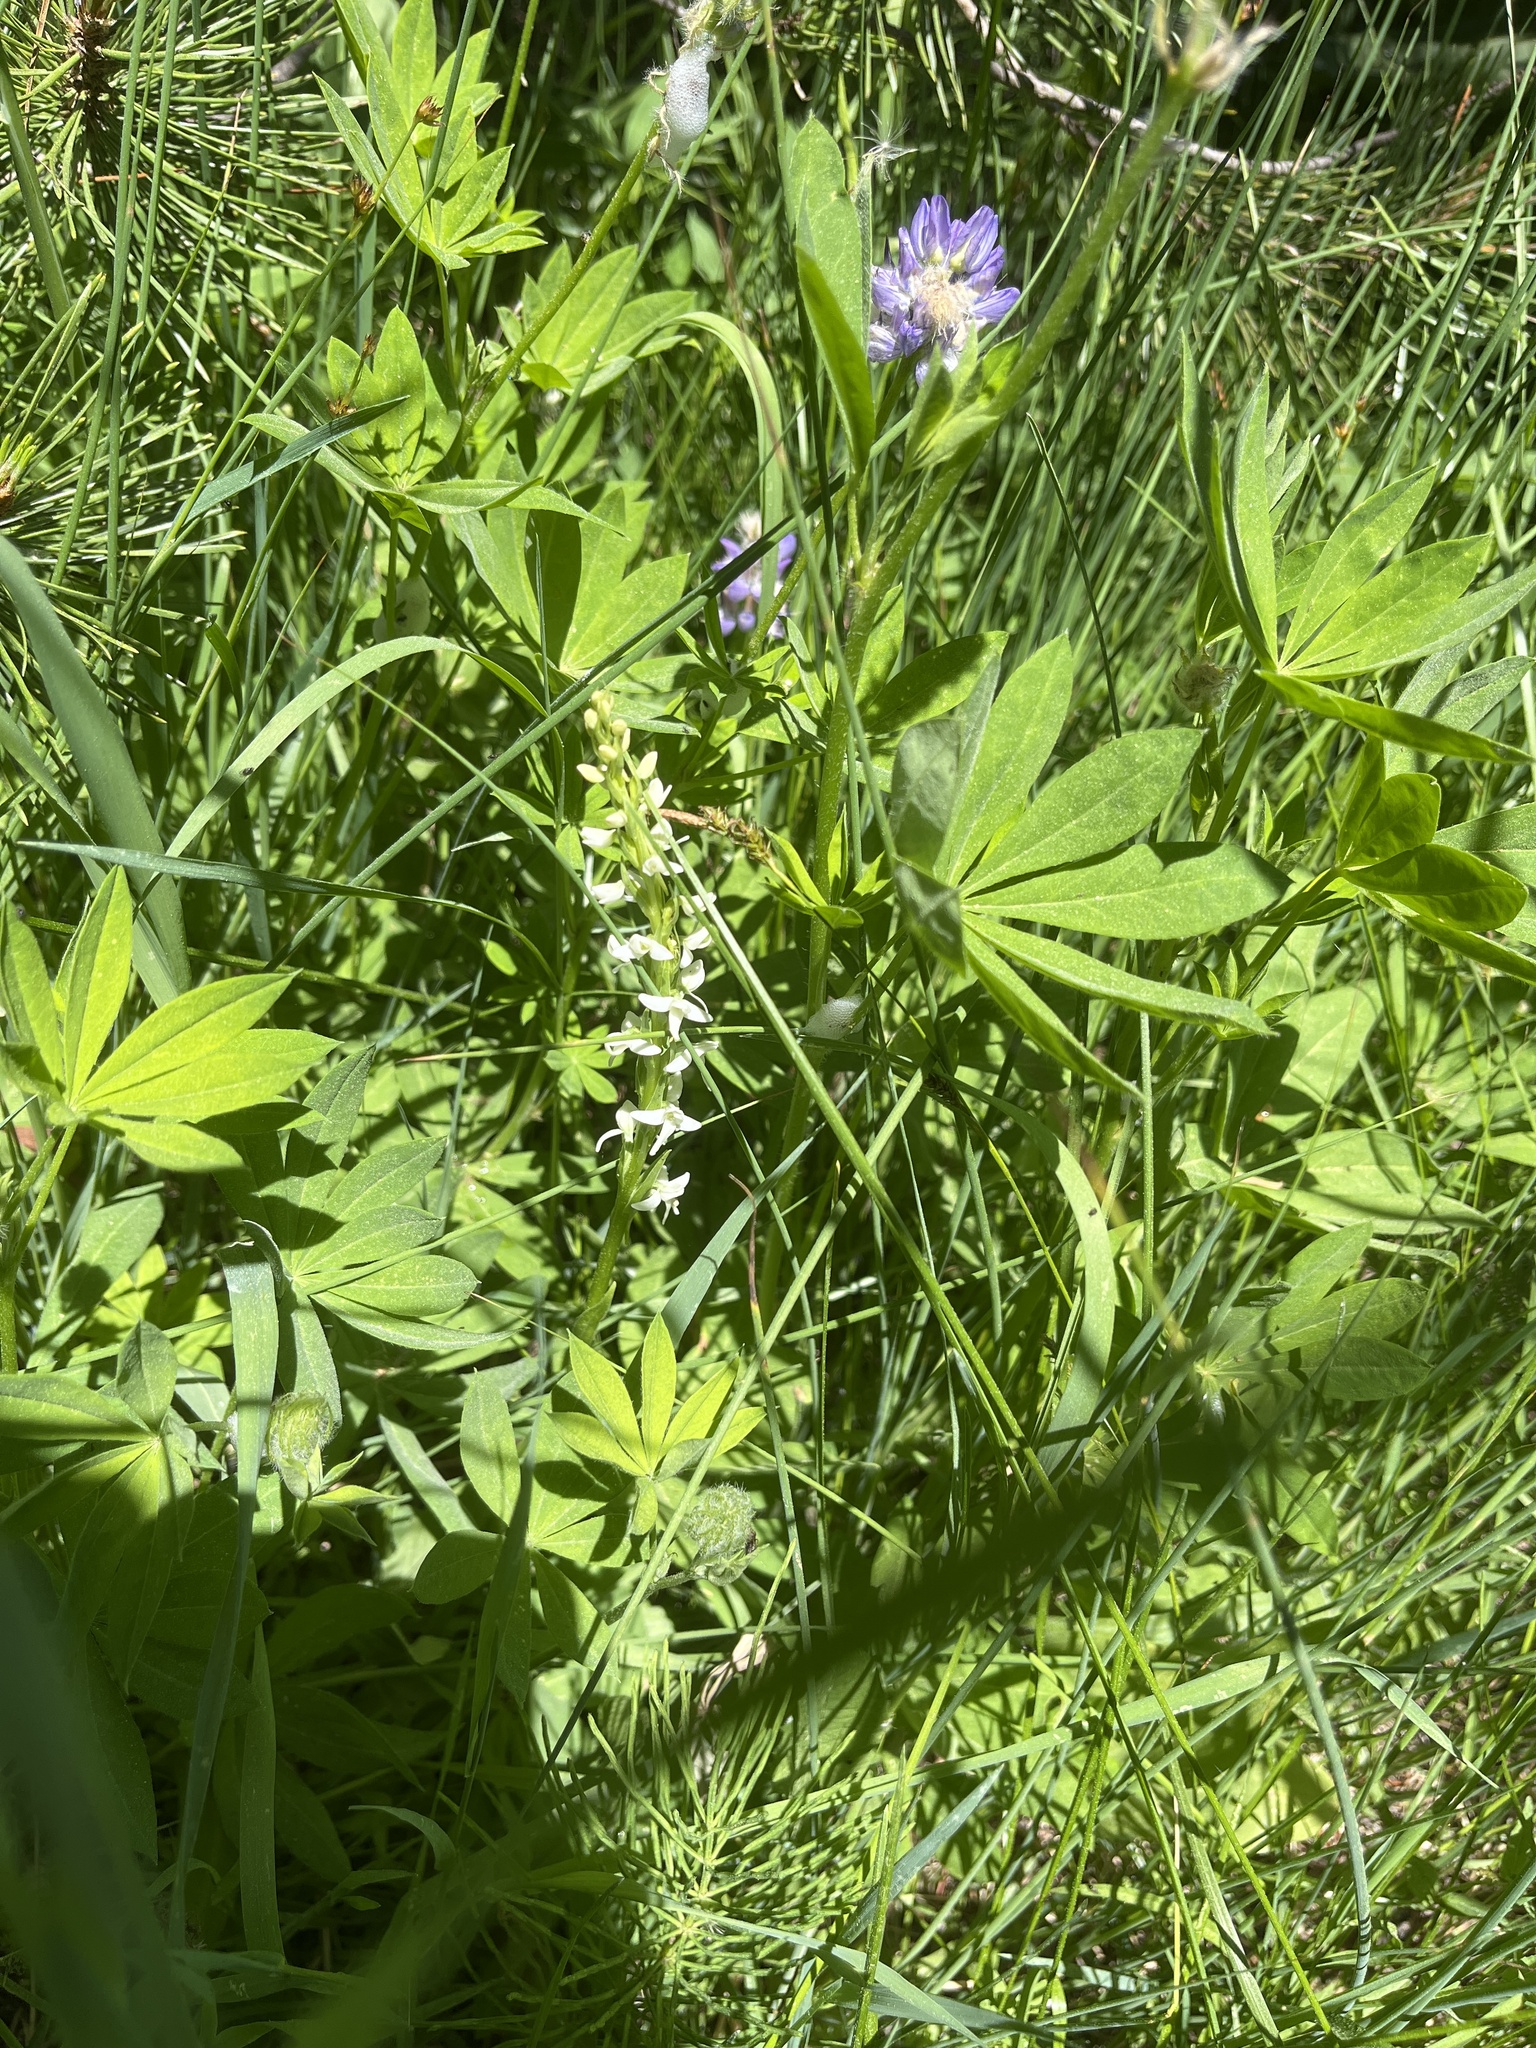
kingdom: Plantae
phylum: Tracheophyta
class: Liliopsida
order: Asparagales
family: Orchidaceae
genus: Platanthera
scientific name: Platanthera dilatata
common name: Bog candles
